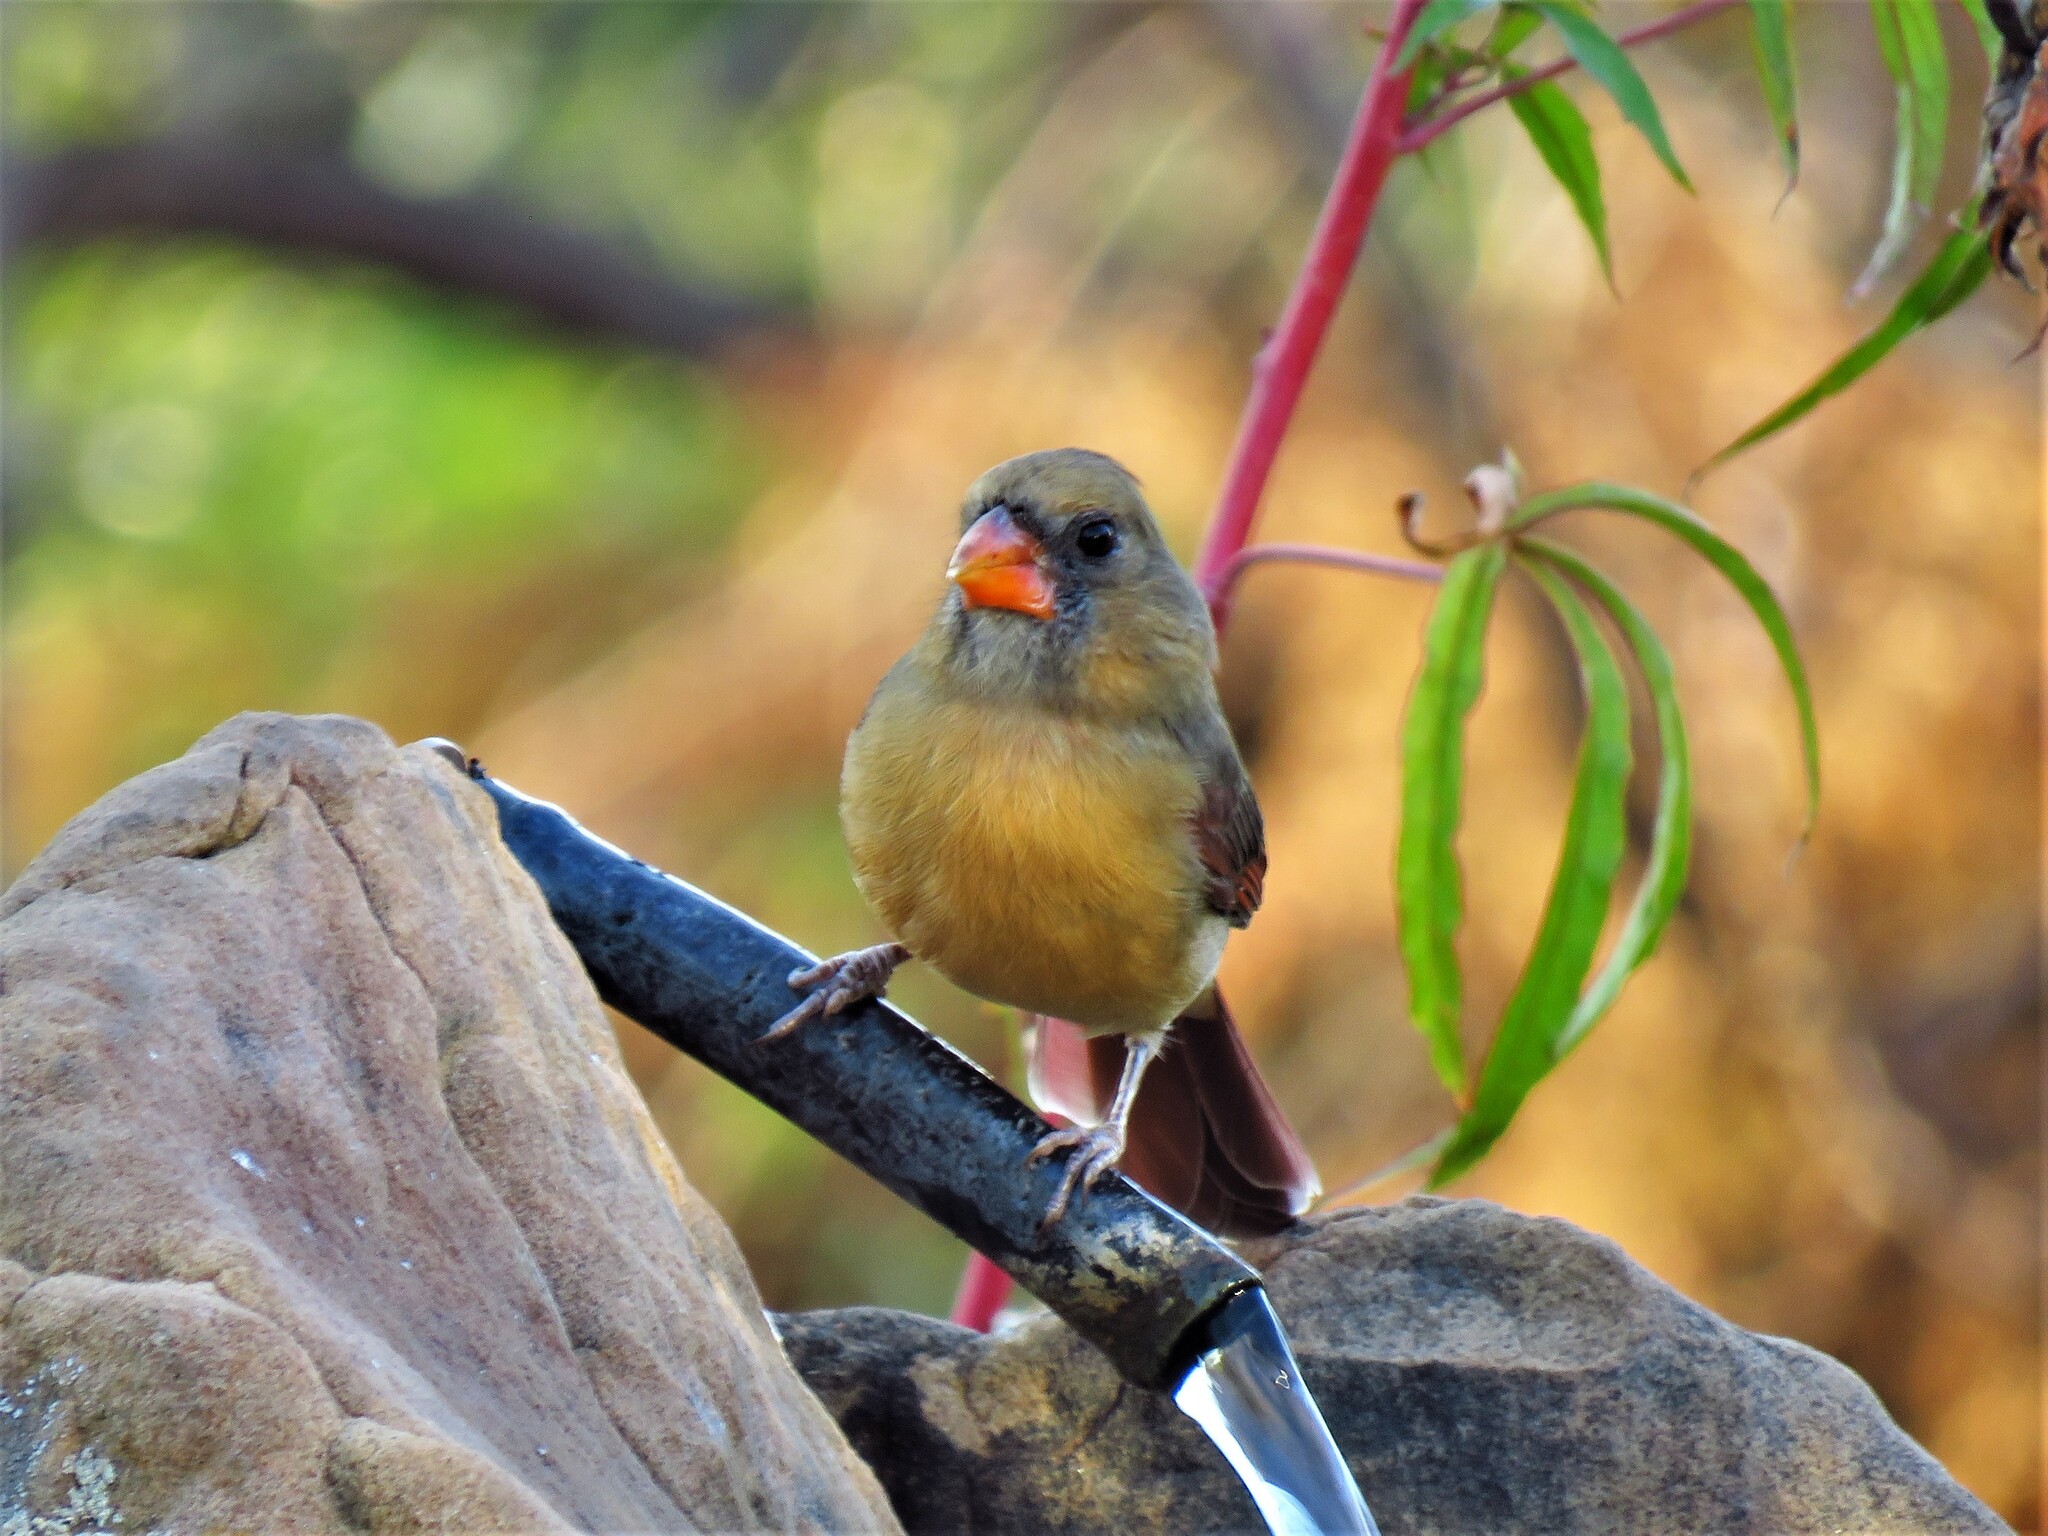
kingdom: Animalia
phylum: Chordata
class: Aves
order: Passeriformes
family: Cardinalidae
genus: Cardinalis
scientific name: Cardinalis cardinalis
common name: Northern cardinal
